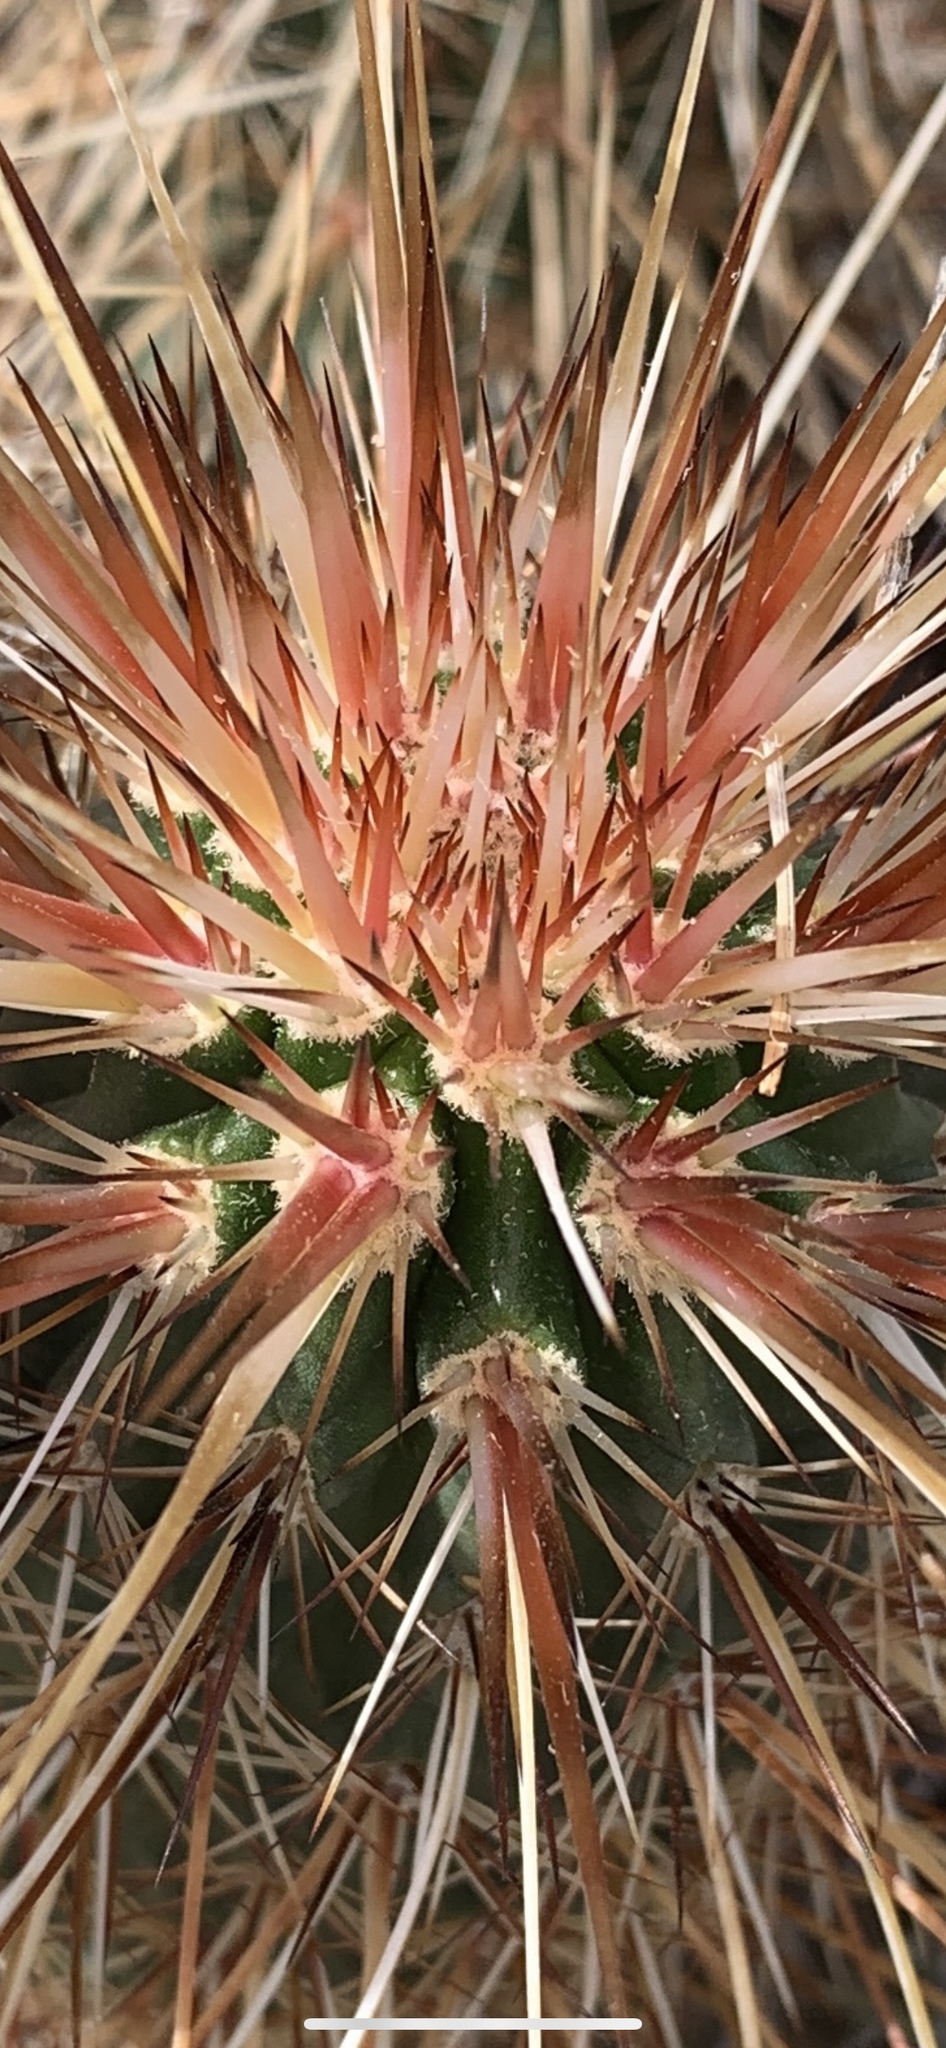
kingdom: Plantae
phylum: Tracheophyta
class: Magnoliopsida
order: Caryophyllales
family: Cactaceae
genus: Echinocereus
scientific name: Echinocereus engelmannii
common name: Engelmann's hedgehog cactus
